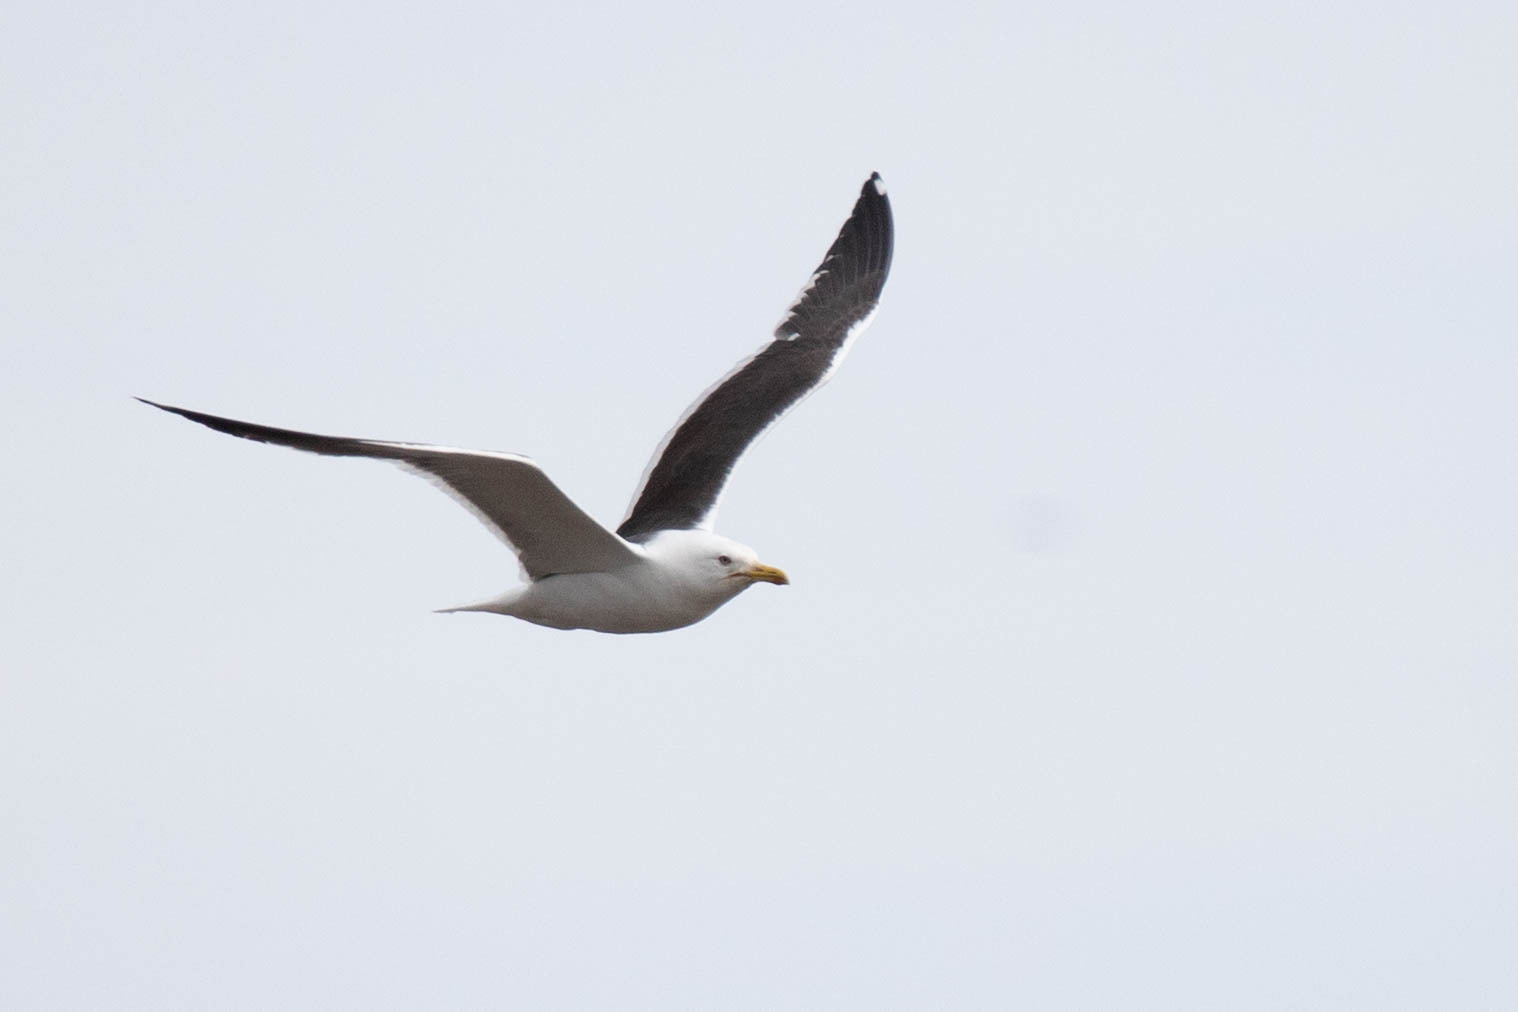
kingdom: Animalia
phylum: Chordata
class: Aves
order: Charadriiformes
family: Laridae
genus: Larus
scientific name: Larus marinus
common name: Great black-backed gull
